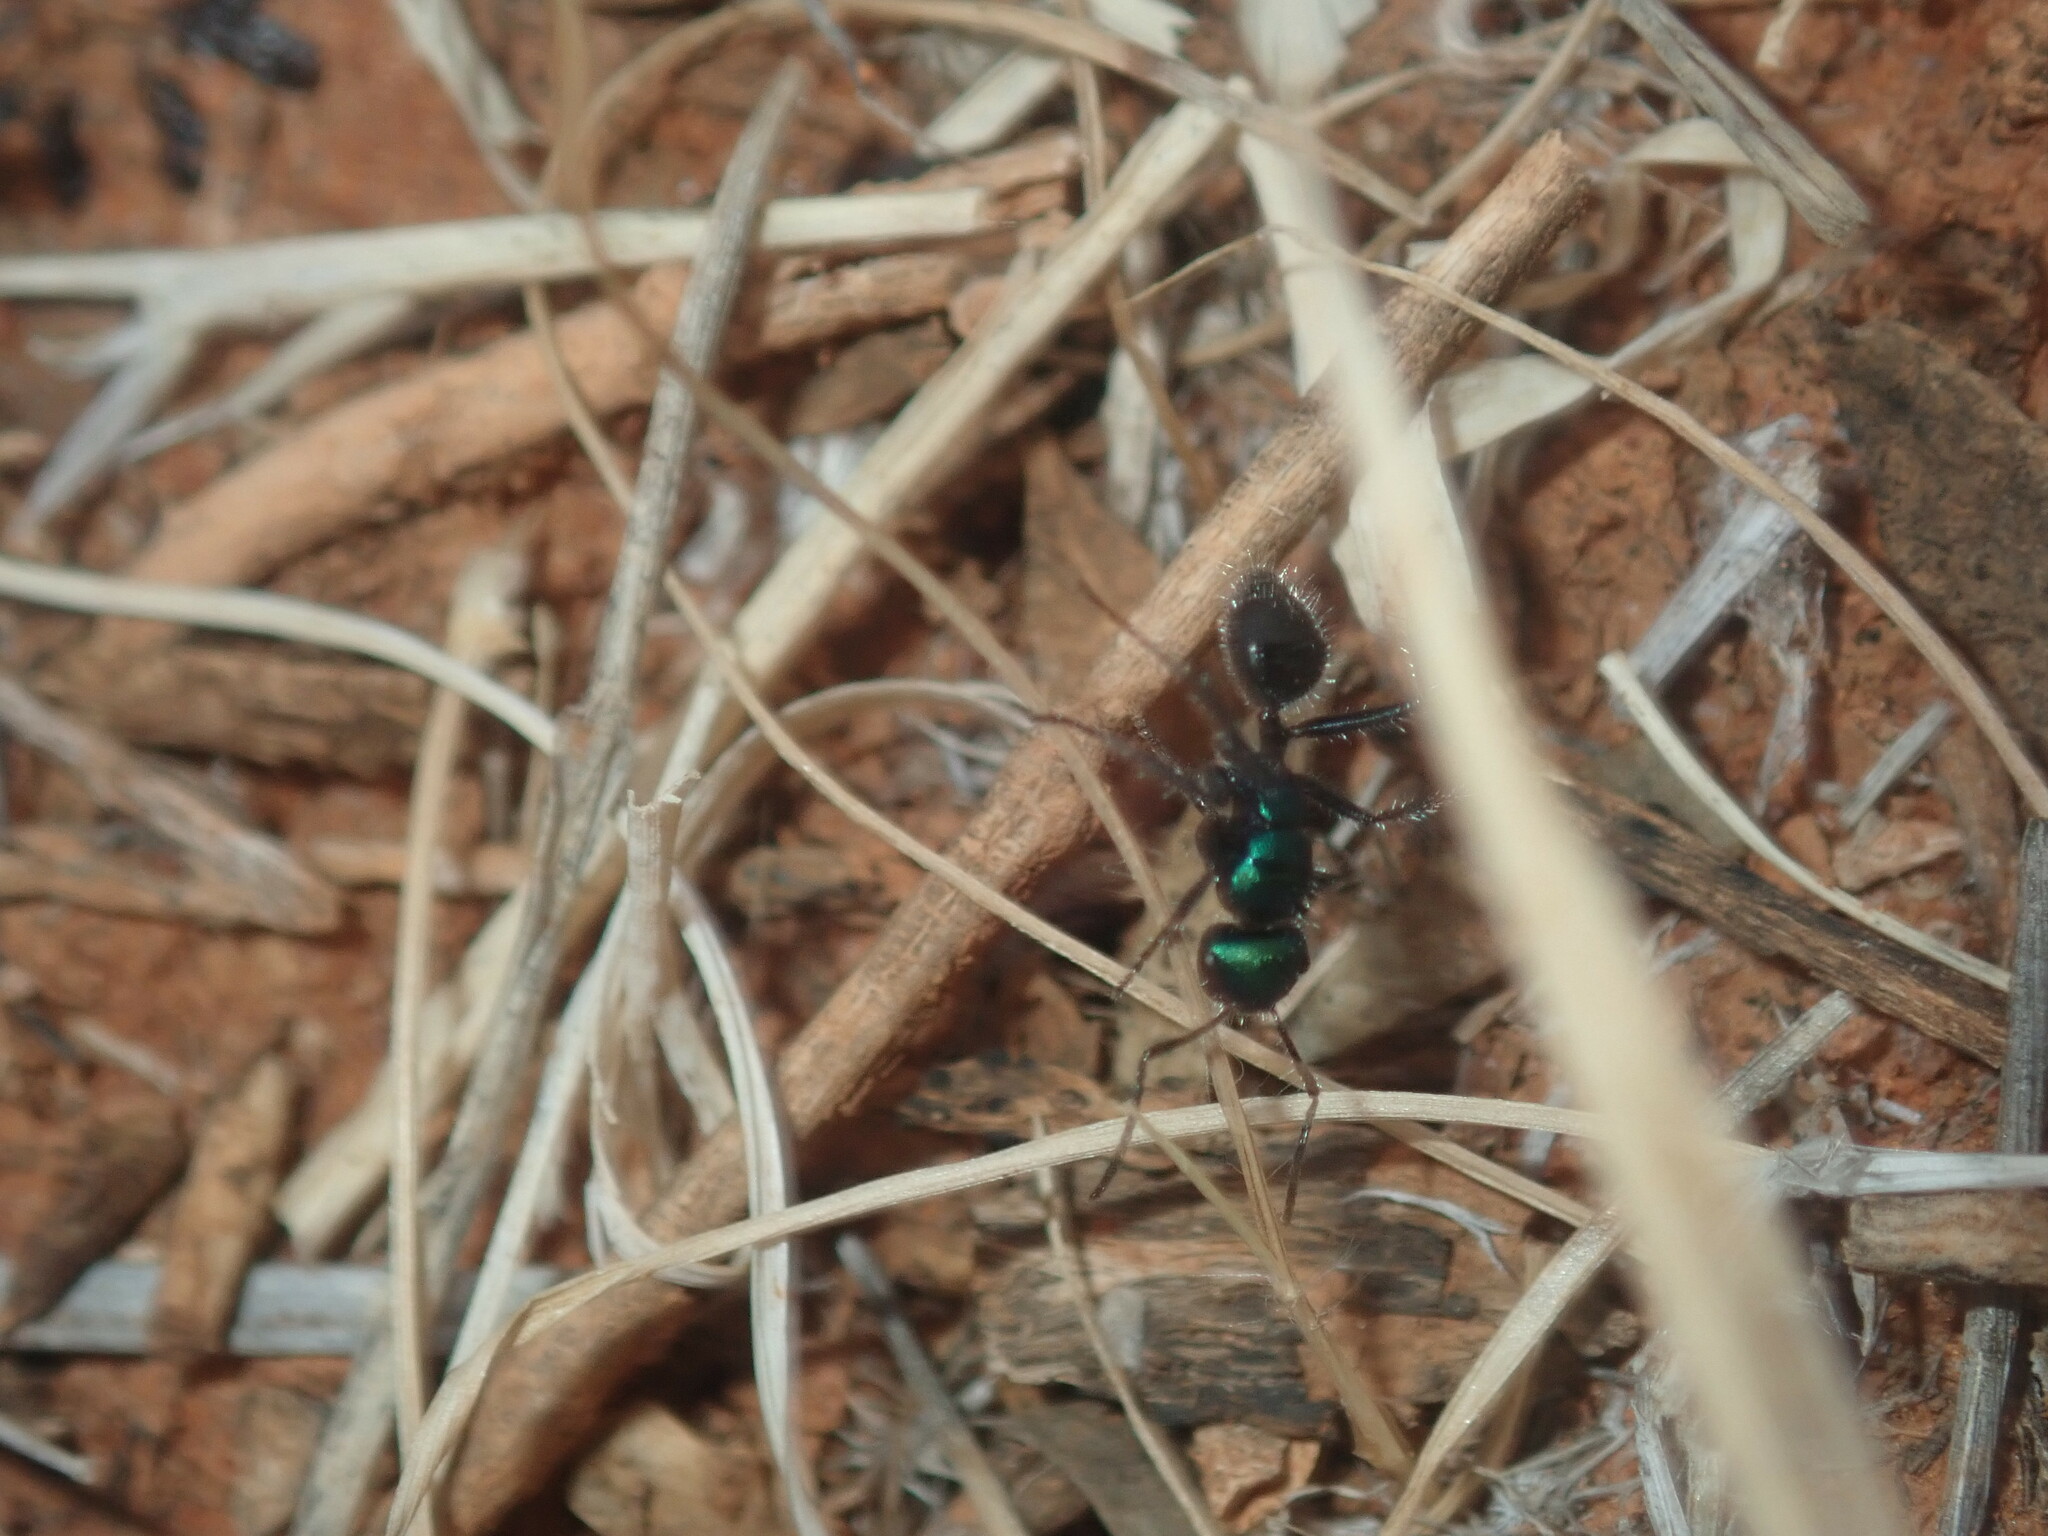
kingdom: Animalia
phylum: Arthropoda
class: Insecta
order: Hymenoptera
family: Formicidae
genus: Calomyrmex
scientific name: Calomyrmex purpureus
